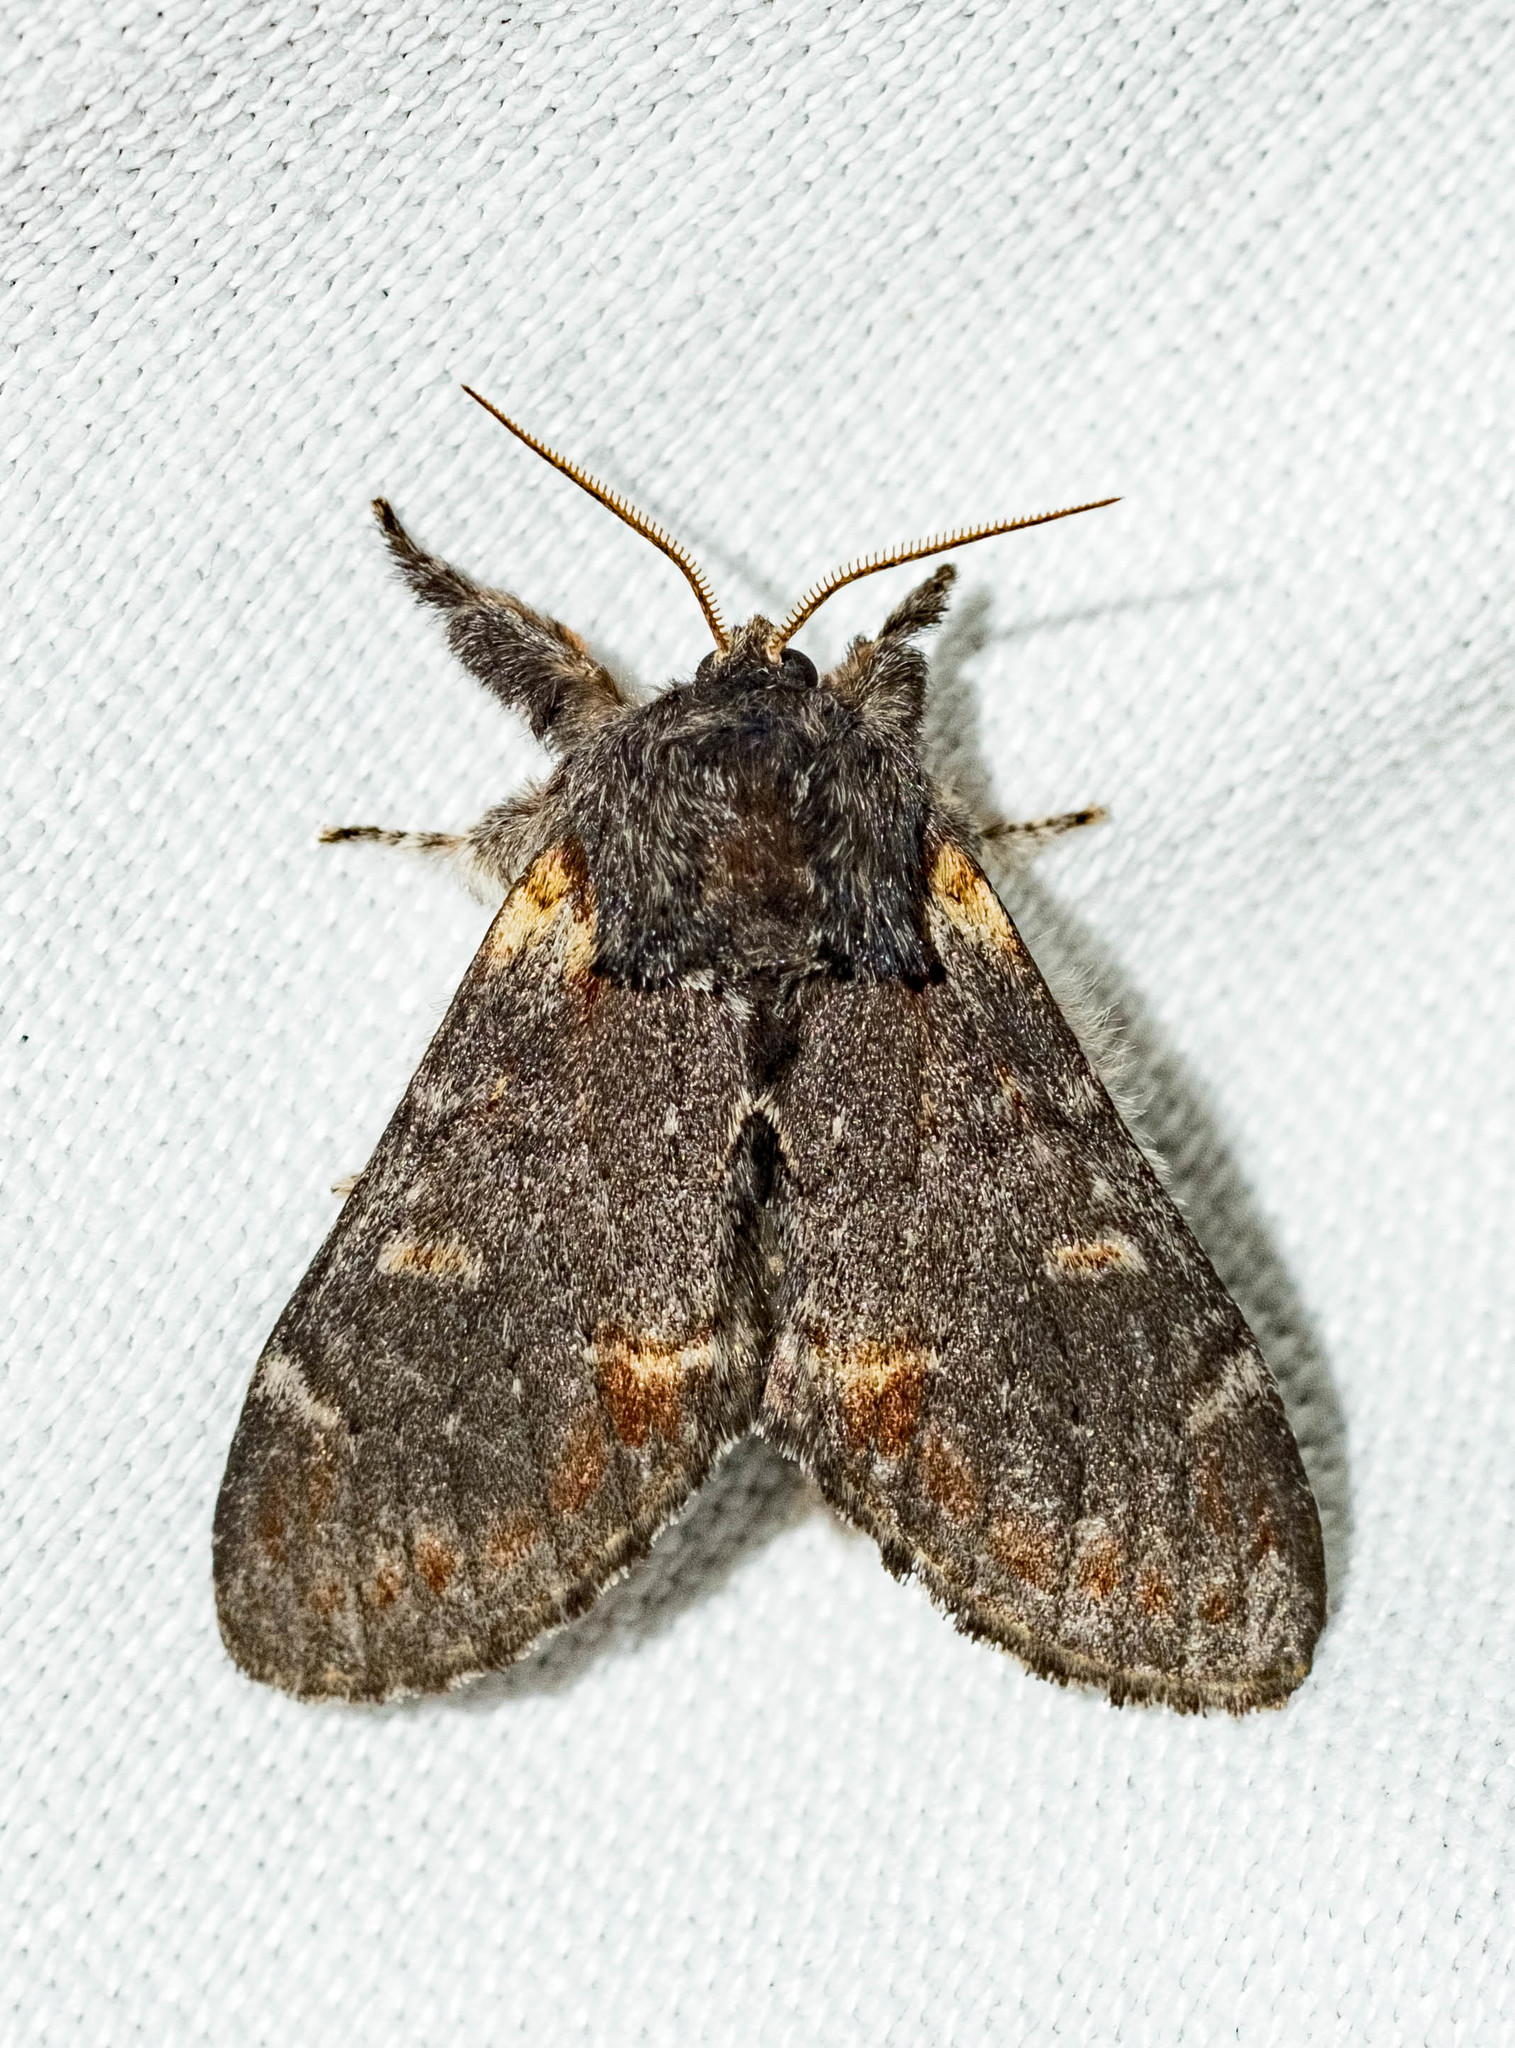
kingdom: Animalia
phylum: Arthropoda
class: Insecta
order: Lepidoptera
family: Notodontidae
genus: Notodonta
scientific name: Notodonta dromedarius
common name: Iron prominent
